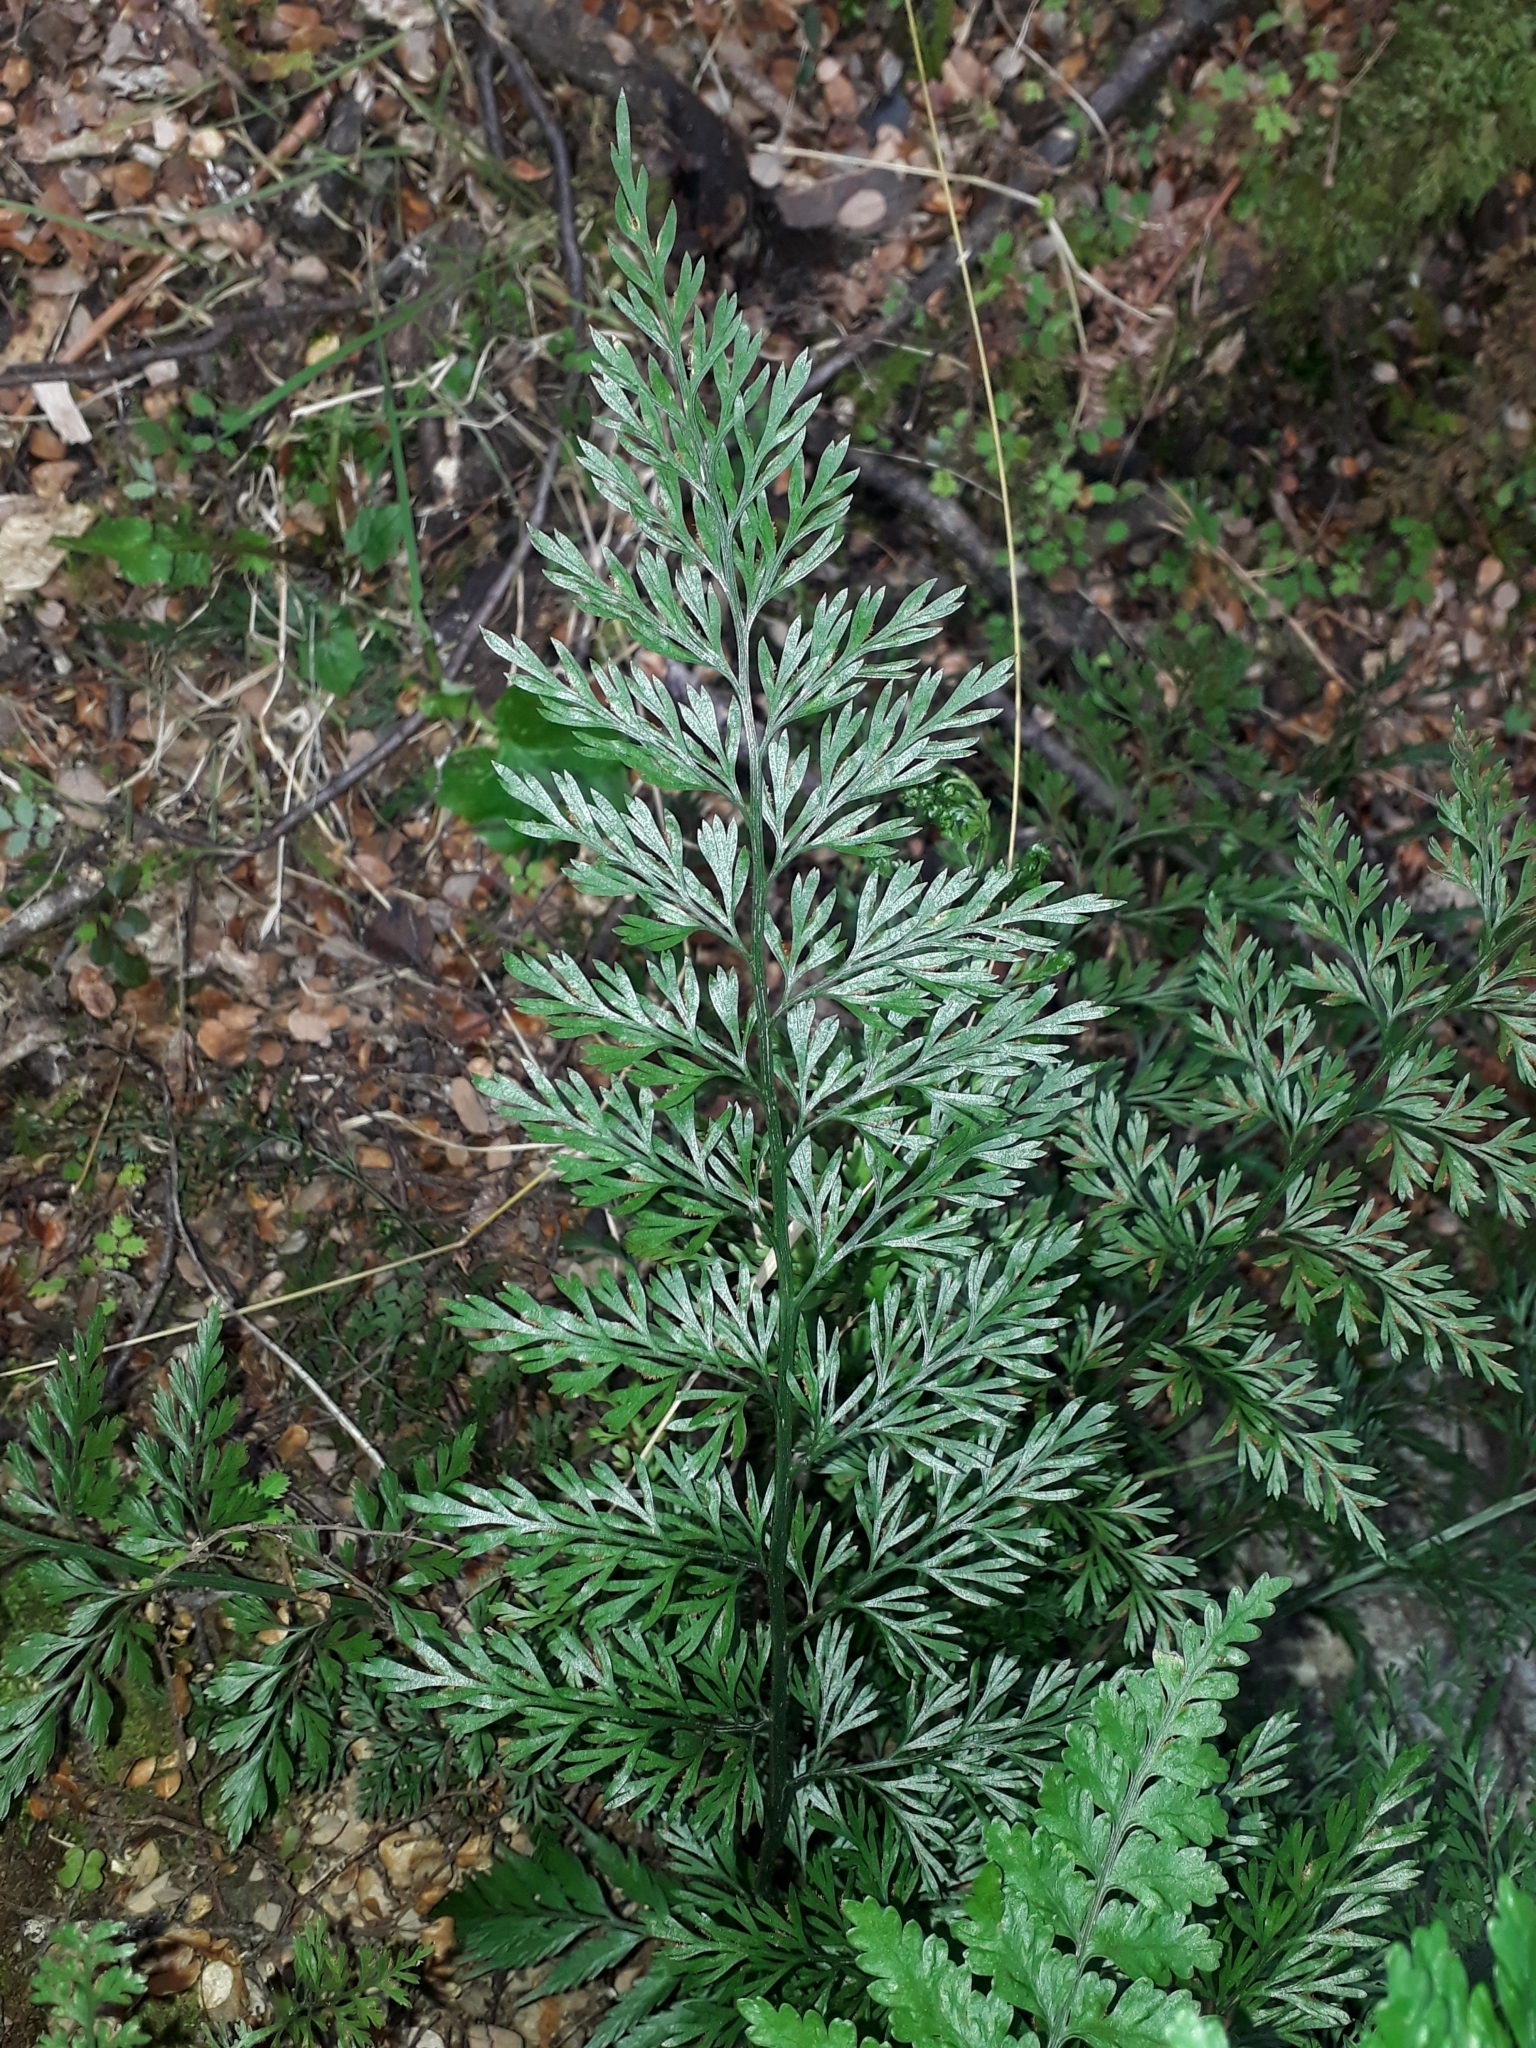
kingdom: Plantae
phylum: Tracheophyta
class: Polypodiopsida
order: Polypodiales
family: Aspleniaceae
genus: Asplenium
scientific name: Asplenium richardii
